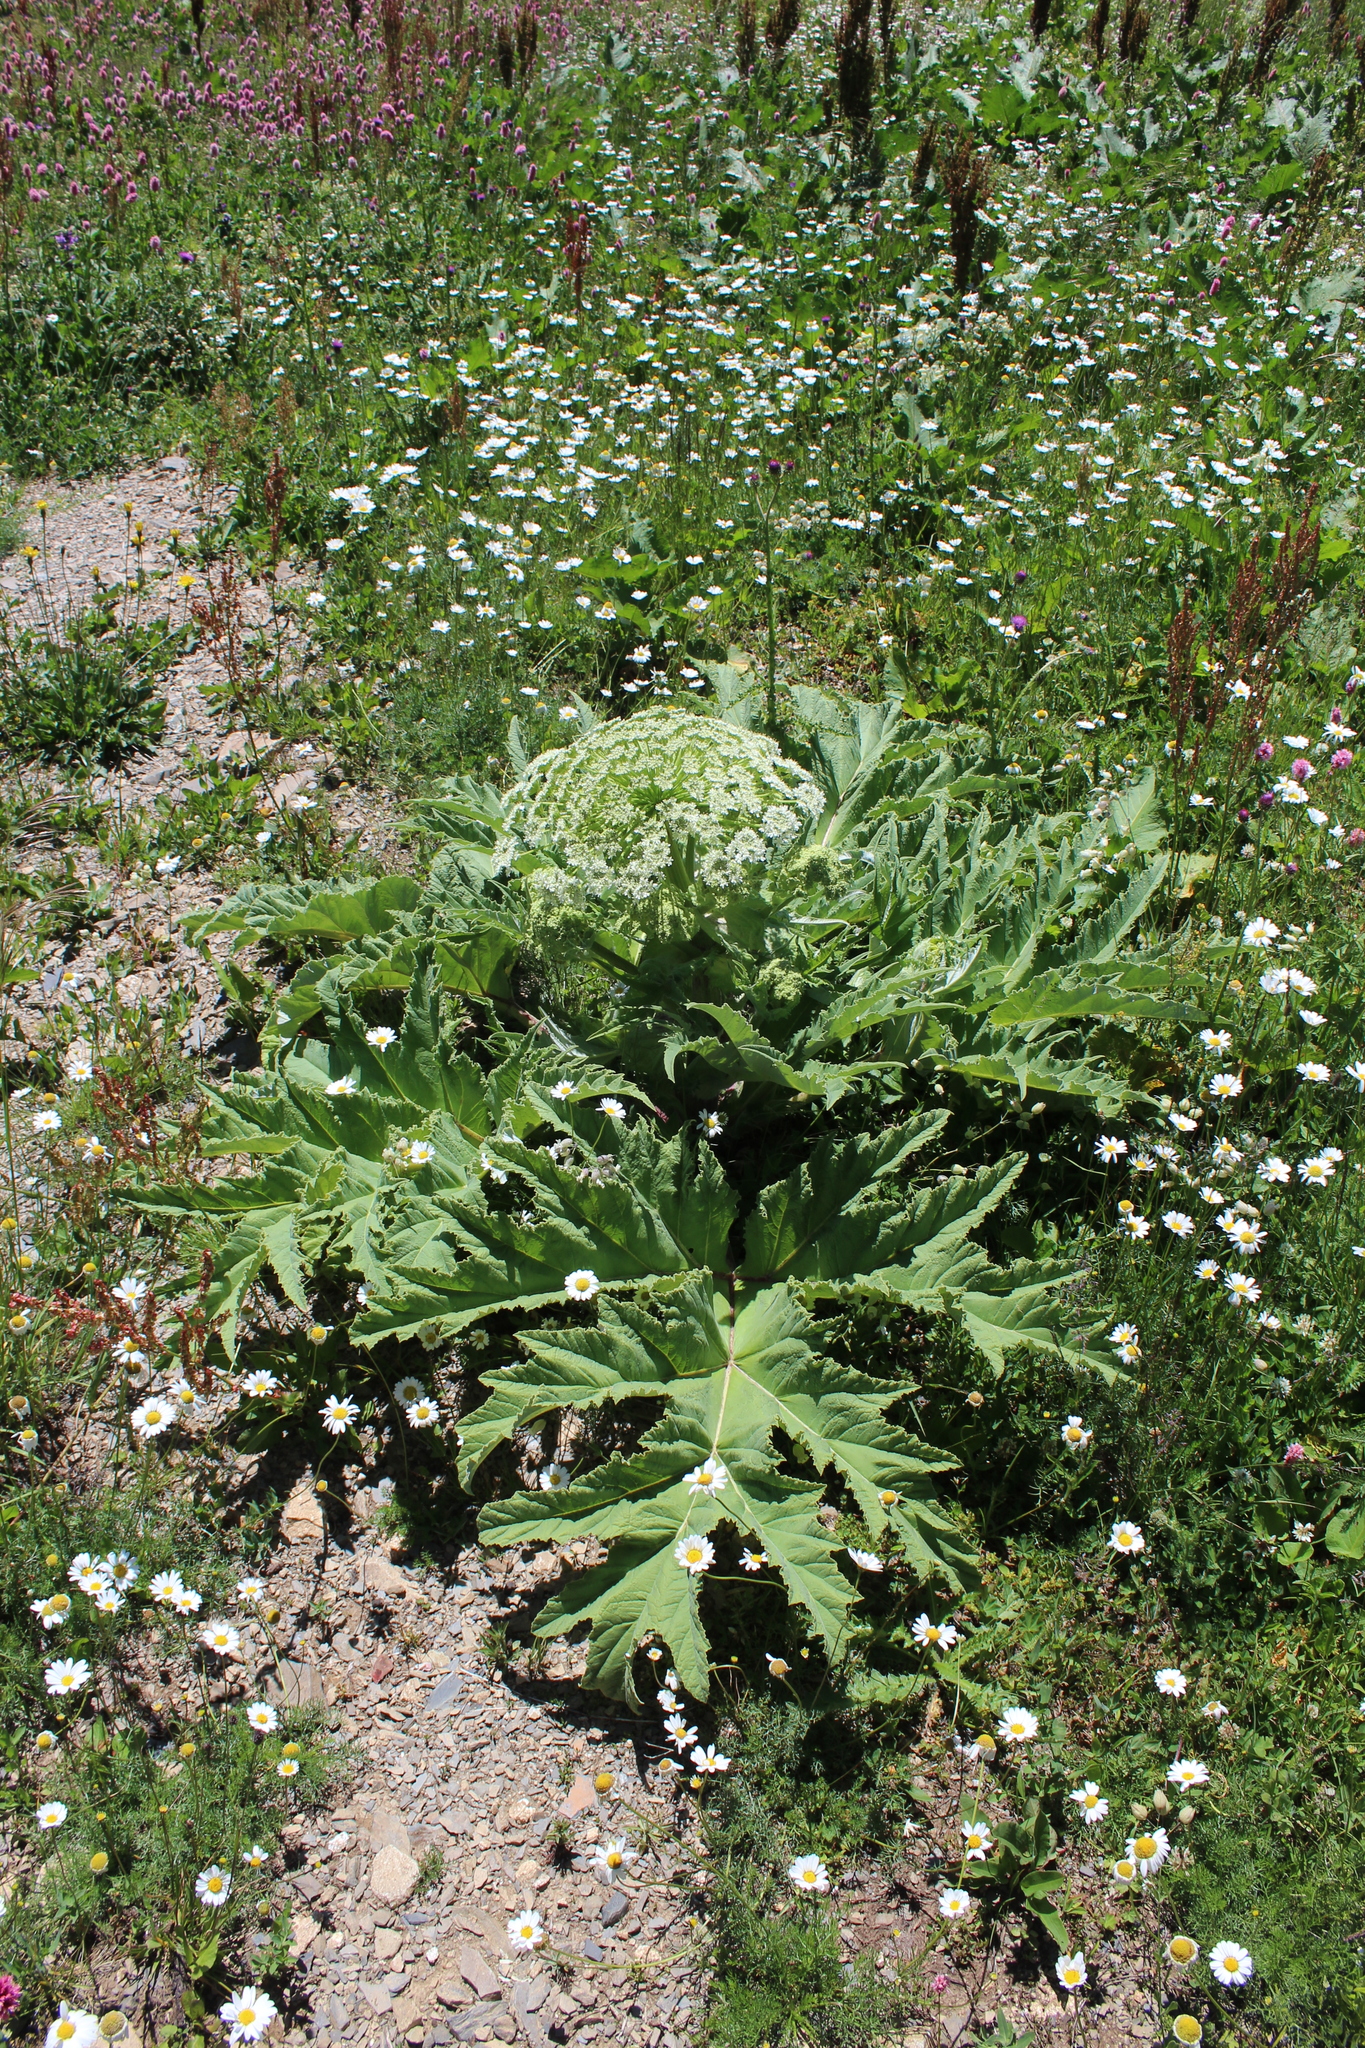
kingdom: Plantae
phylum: Tracheophyta
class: Magnoliopsida
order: Apiales
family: Apiaceae
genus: Heracleum
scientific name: Heracleum leskovii
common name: Leskov's cow-parsnip
